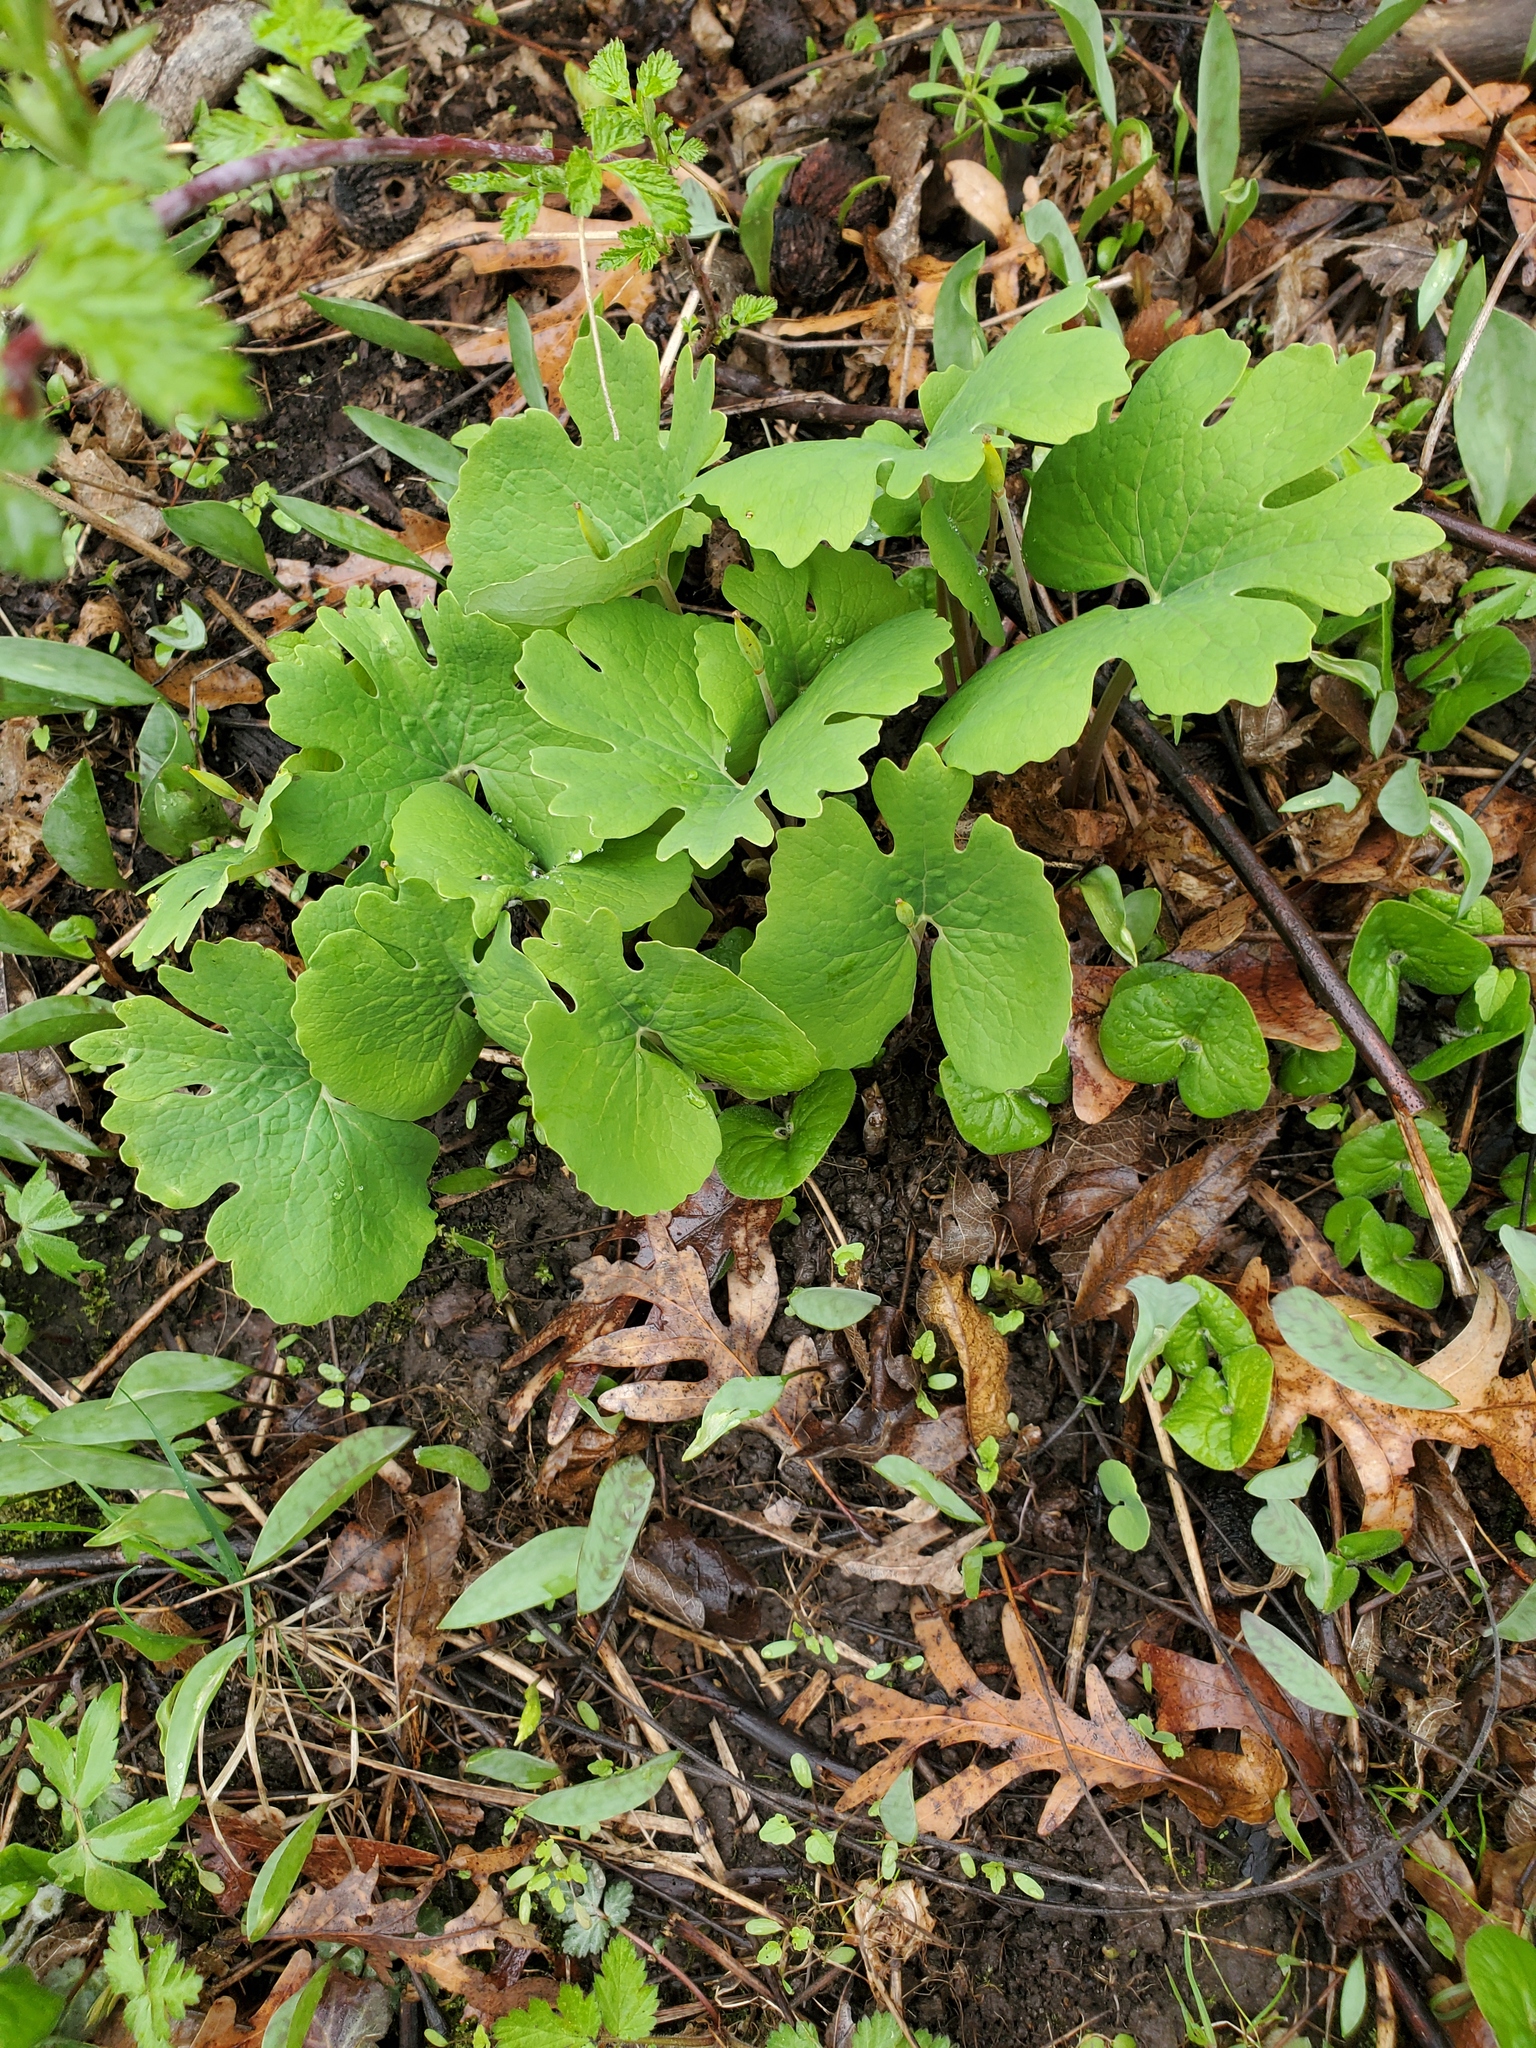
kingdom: Plantae
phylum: Tracheophyta
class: Magnoliopsida
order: Ranunculales
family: Papaveraceae
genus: Sanguinaria
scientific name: Sanguinaria canadensis
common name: Bloodroot
